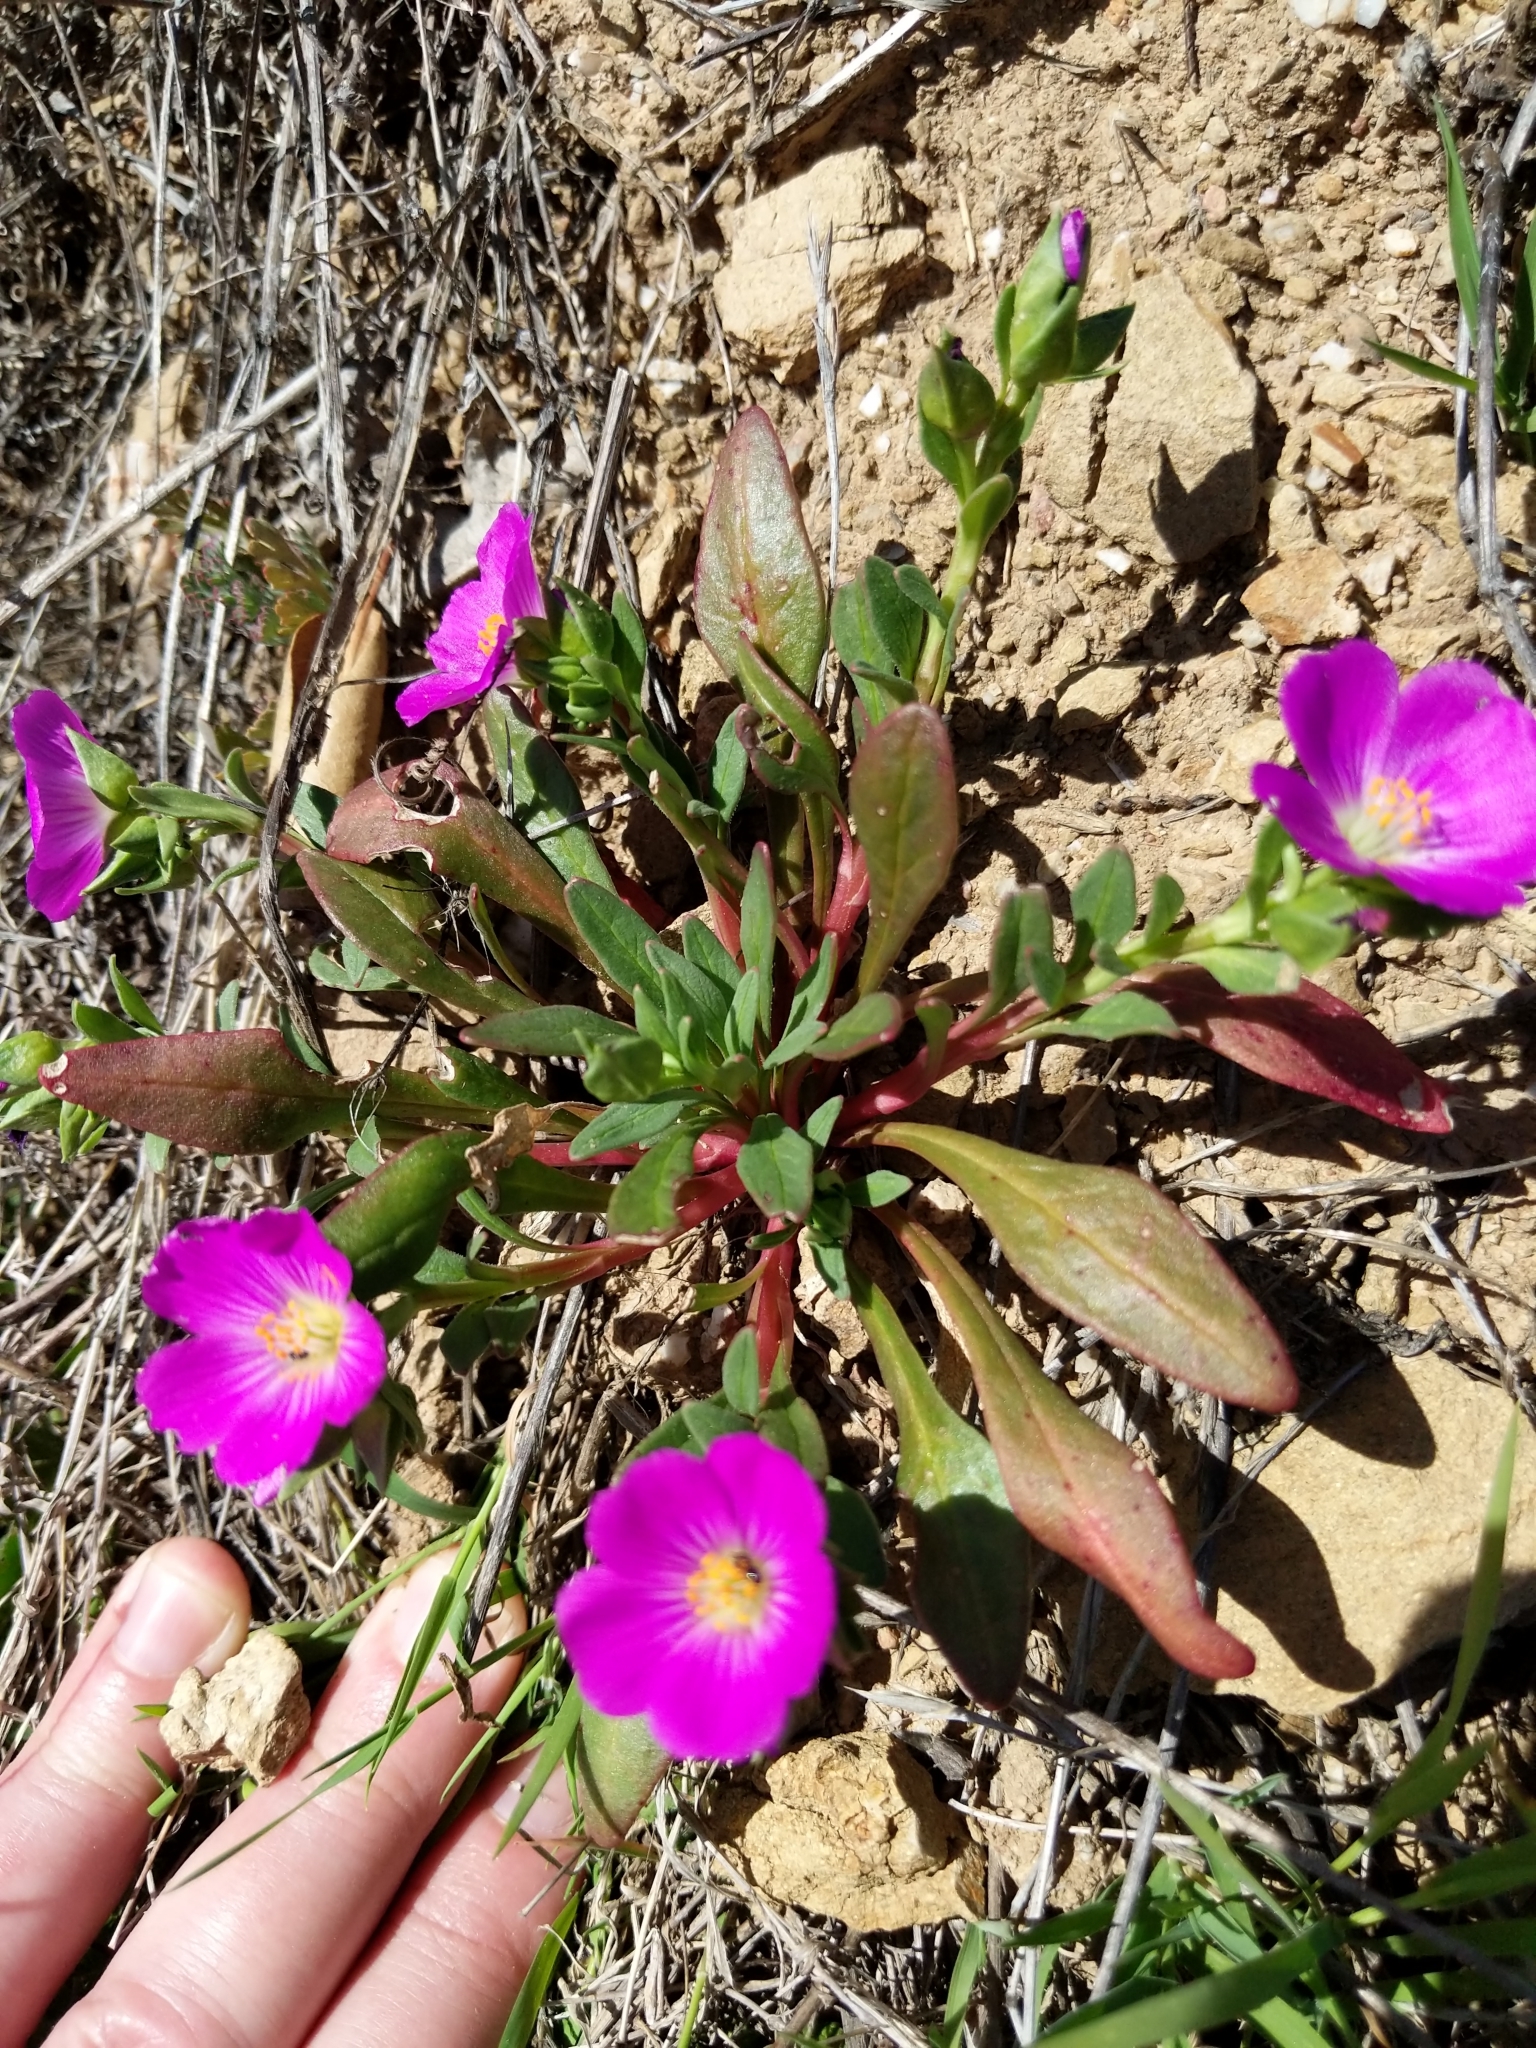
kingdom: Plantae
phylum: Tracheophyta
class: Magnoliopsida
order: Caryophyllales
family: Montiaceae
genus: Calandrinia
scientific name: Calandrinia menziesii
